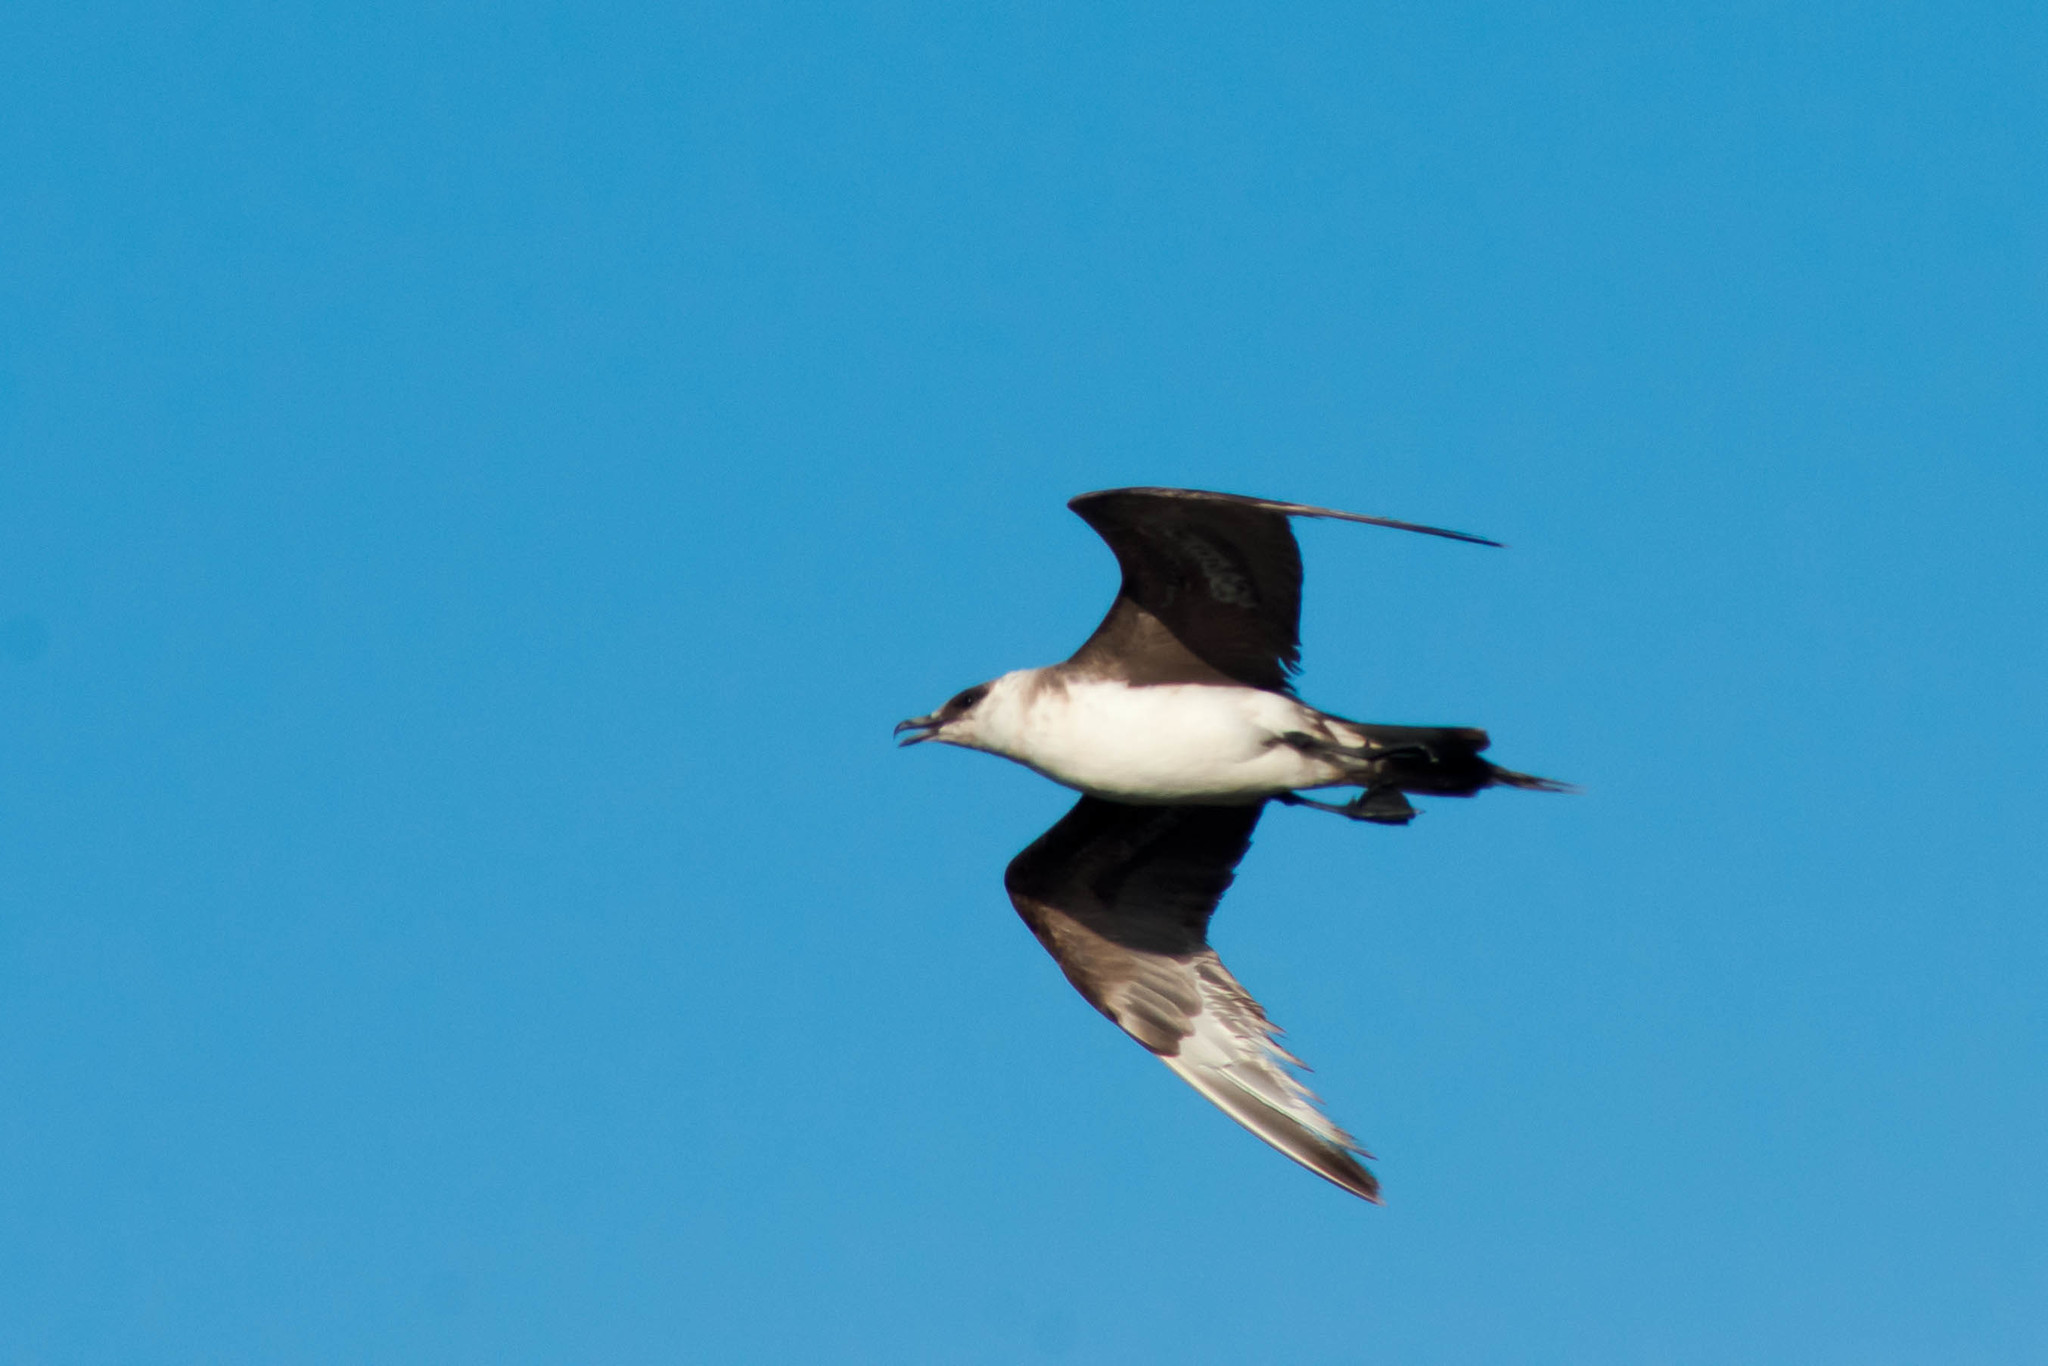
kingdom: Animalia
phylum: Chordata
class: Aves
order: Charadriiformes
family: Stercorariidae
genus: Stercorarius
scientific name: Stercorarius parasiticus
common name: Parasitic jaeger
